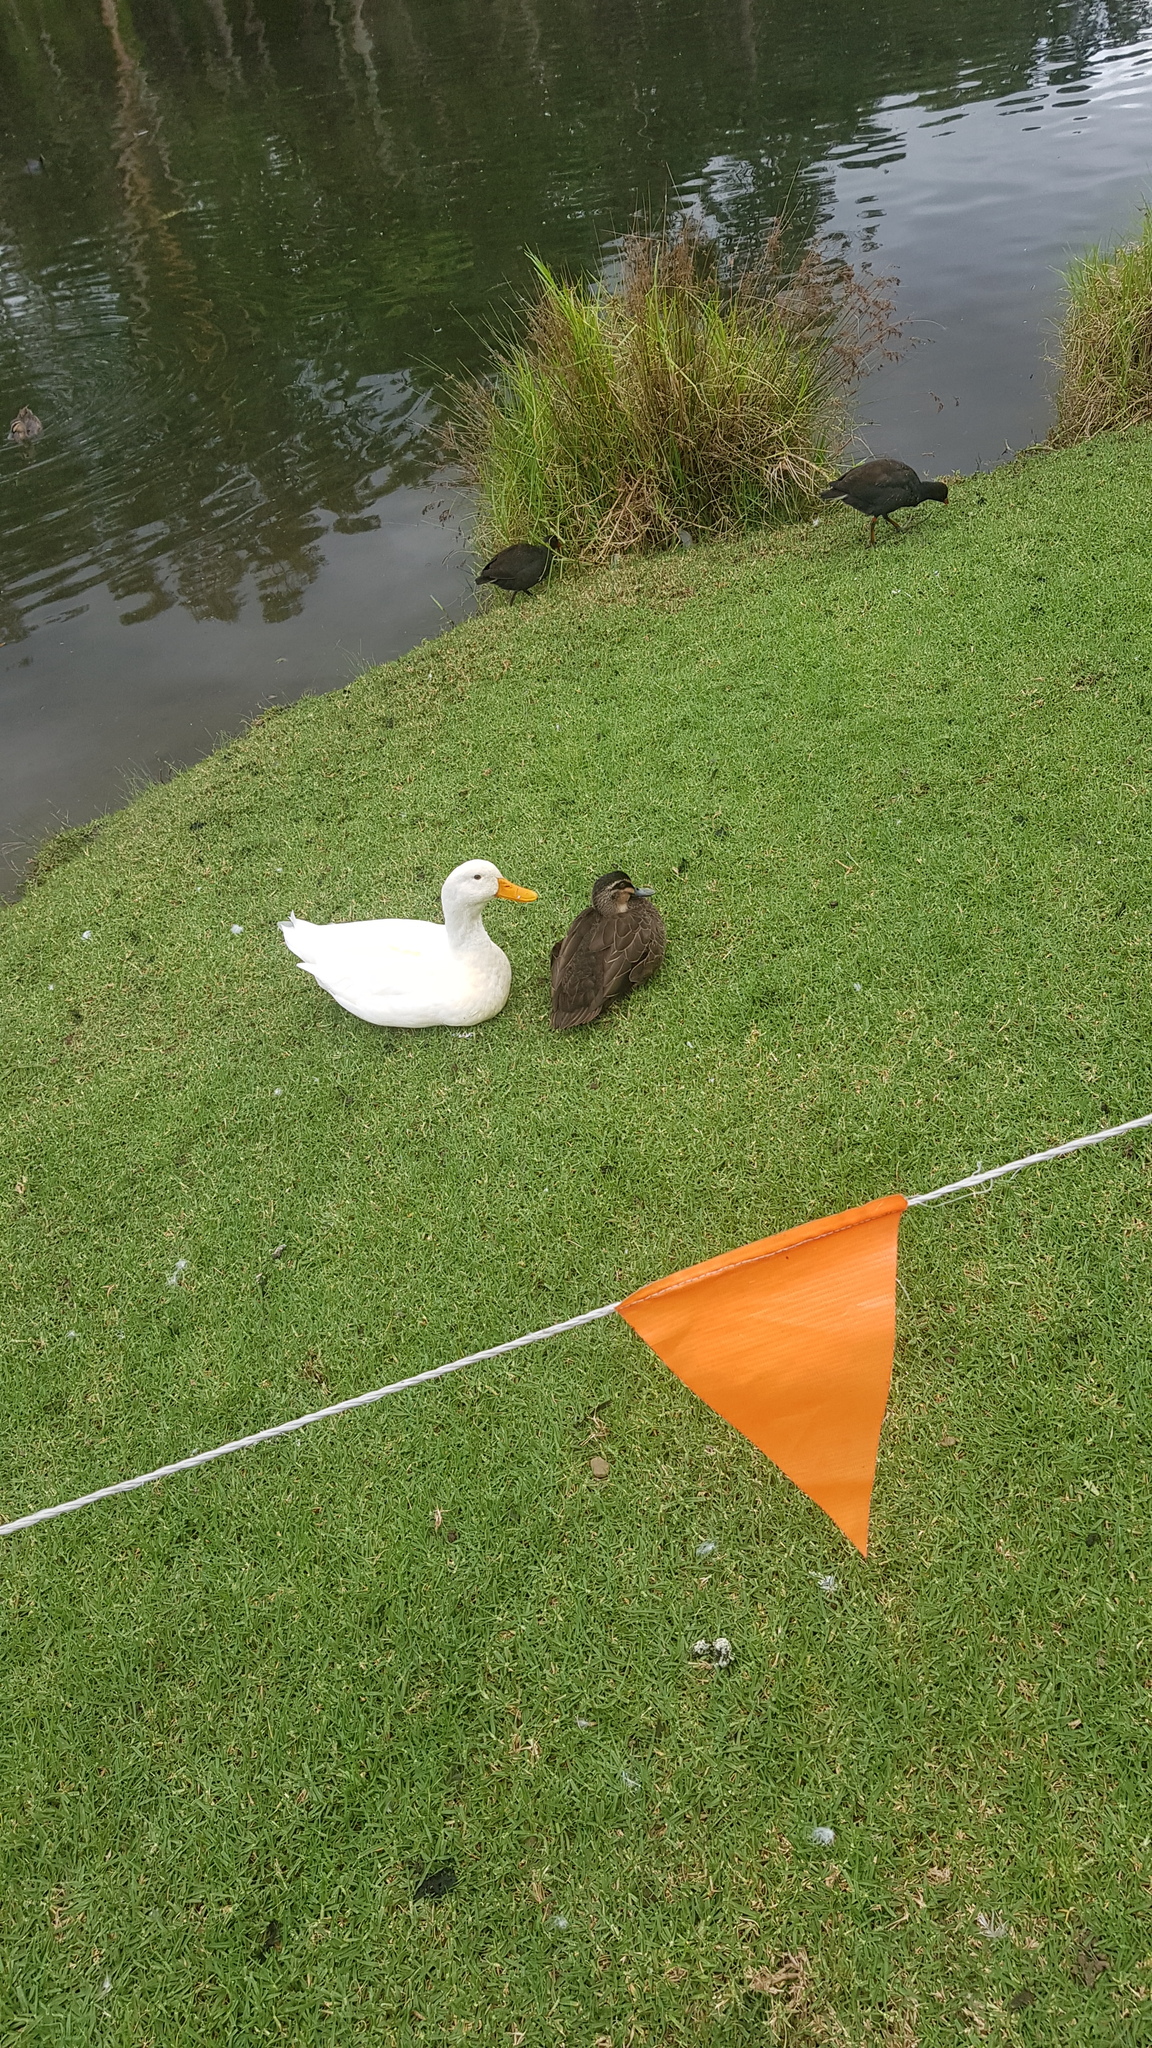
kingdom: Animalia
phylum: Chordata
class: Aves
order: Anseriformes
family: Anatidae
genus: Anas
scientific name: Anas superciliosa
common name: Pacific black duck
